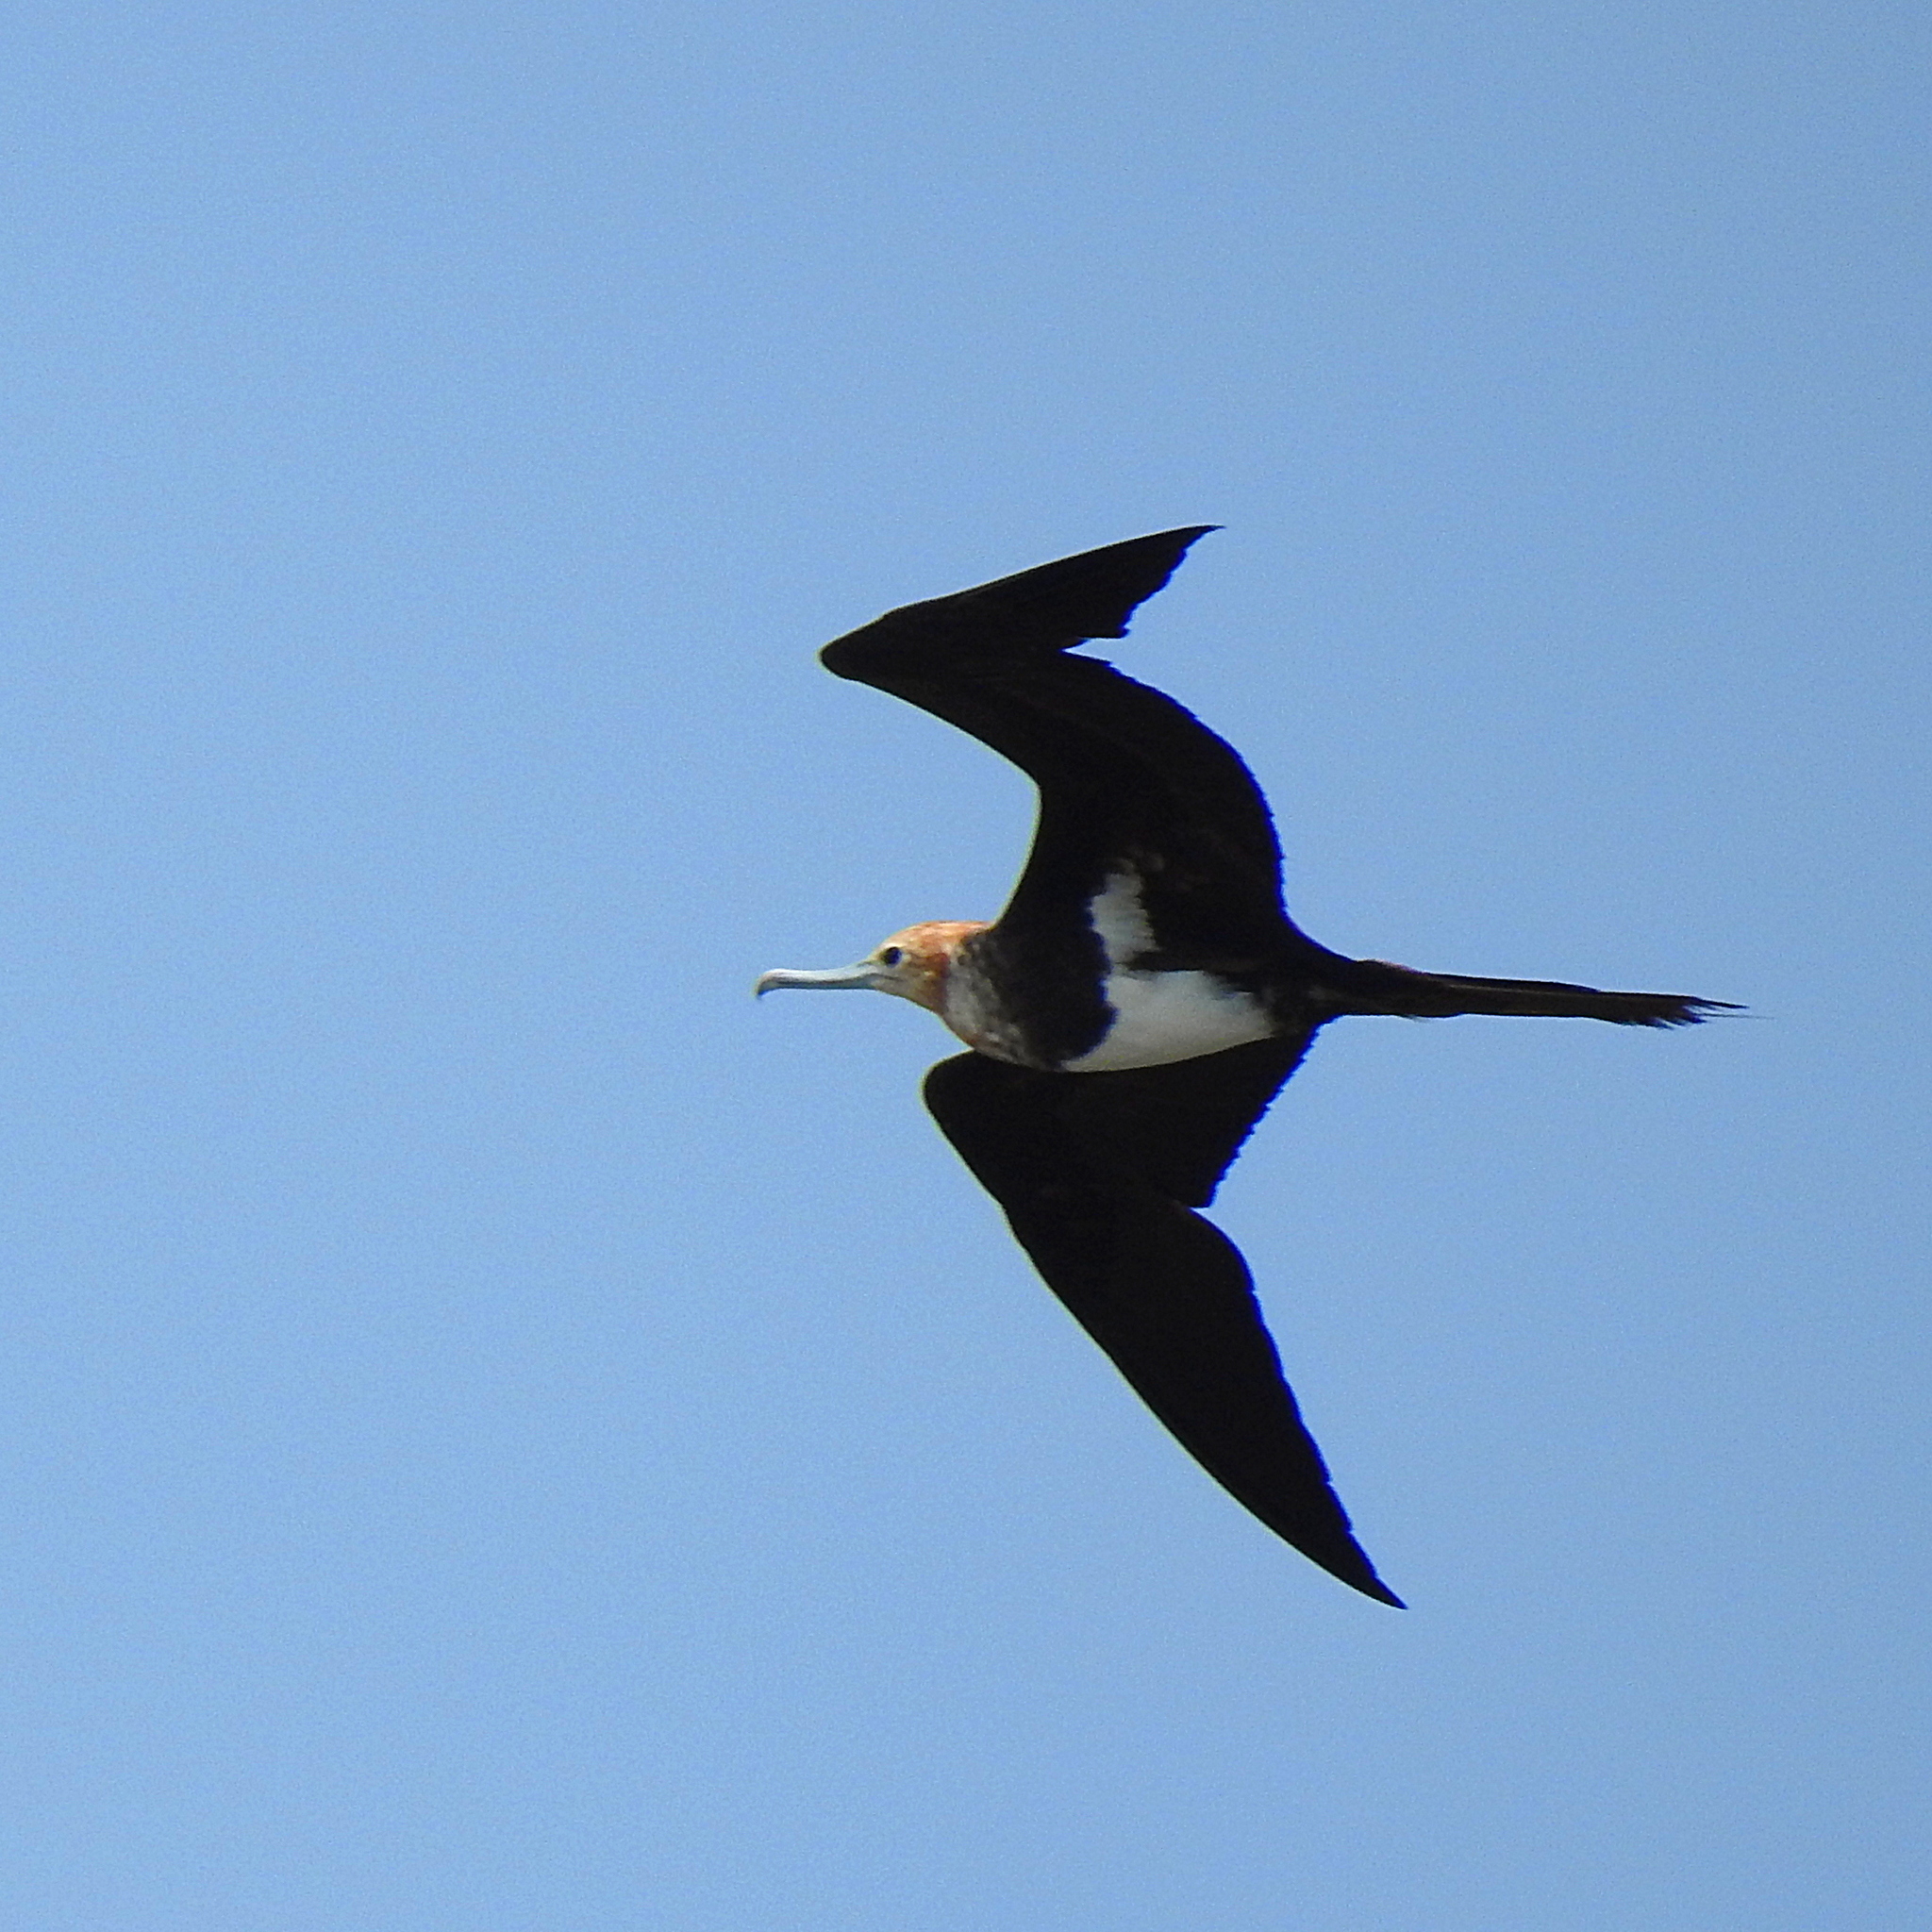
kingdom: Animalia
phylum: Chordata
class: Aves
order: Suliformes
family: Fregatidae
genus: Fregata
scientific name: Fregata ariel
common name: Lesser frigatebird
